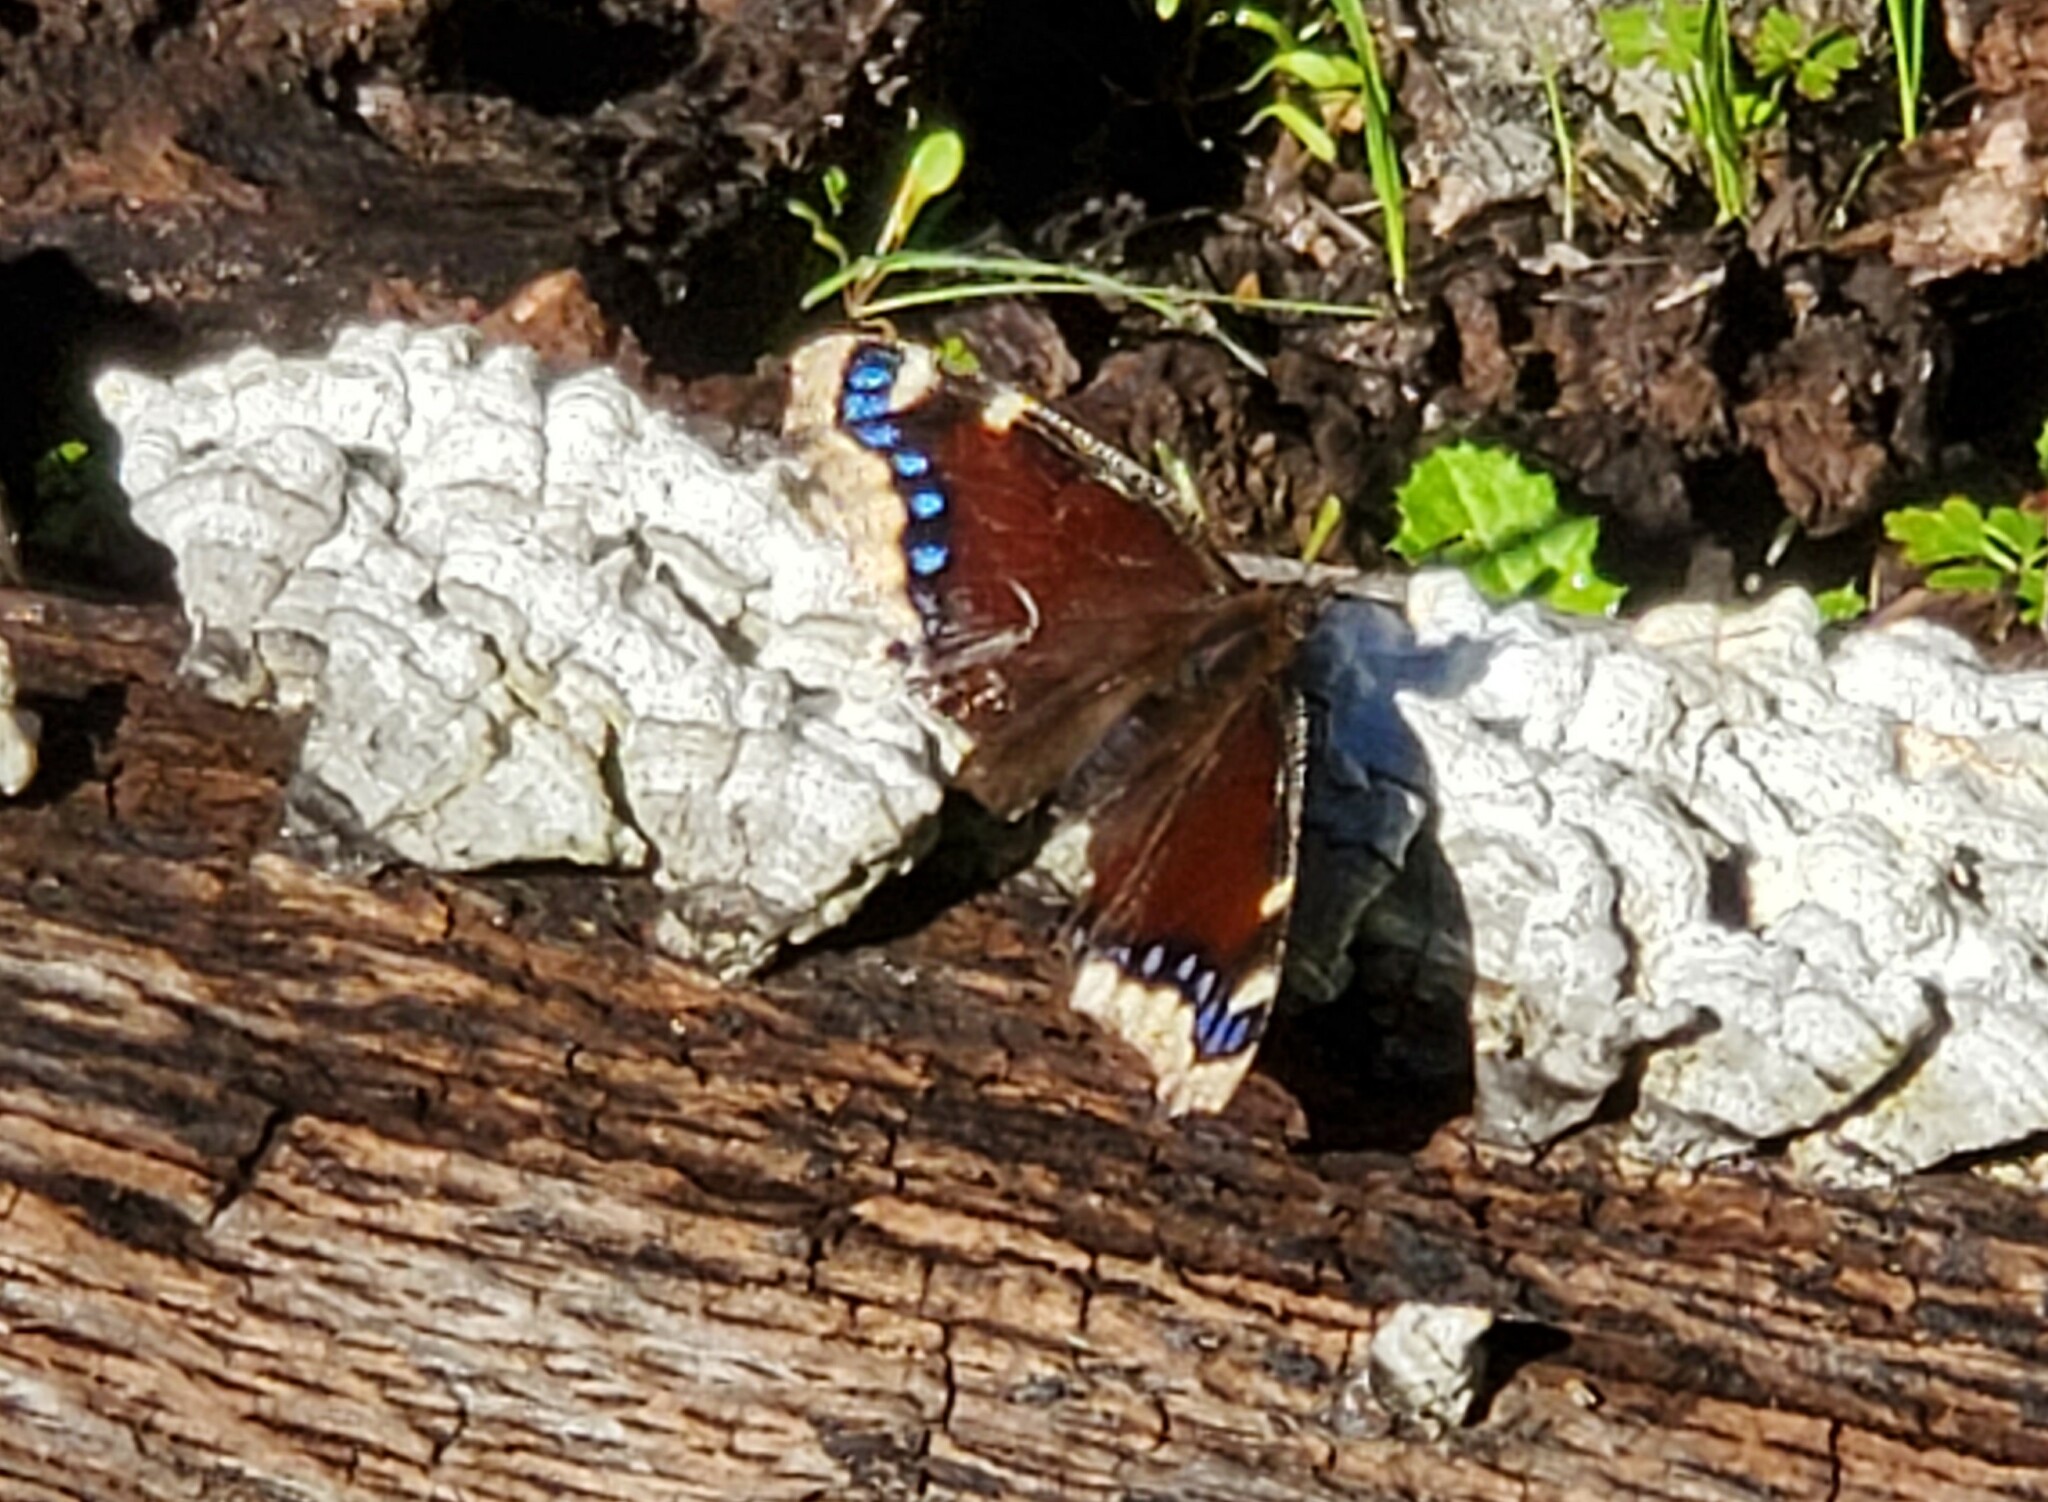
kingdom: Animalia
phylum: Arthropoda
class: Insecta
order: Lepidoptera
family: Nymphalidae
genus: Nymphalis
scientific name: Nymphalis antiopa
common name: Camberwell beauty
